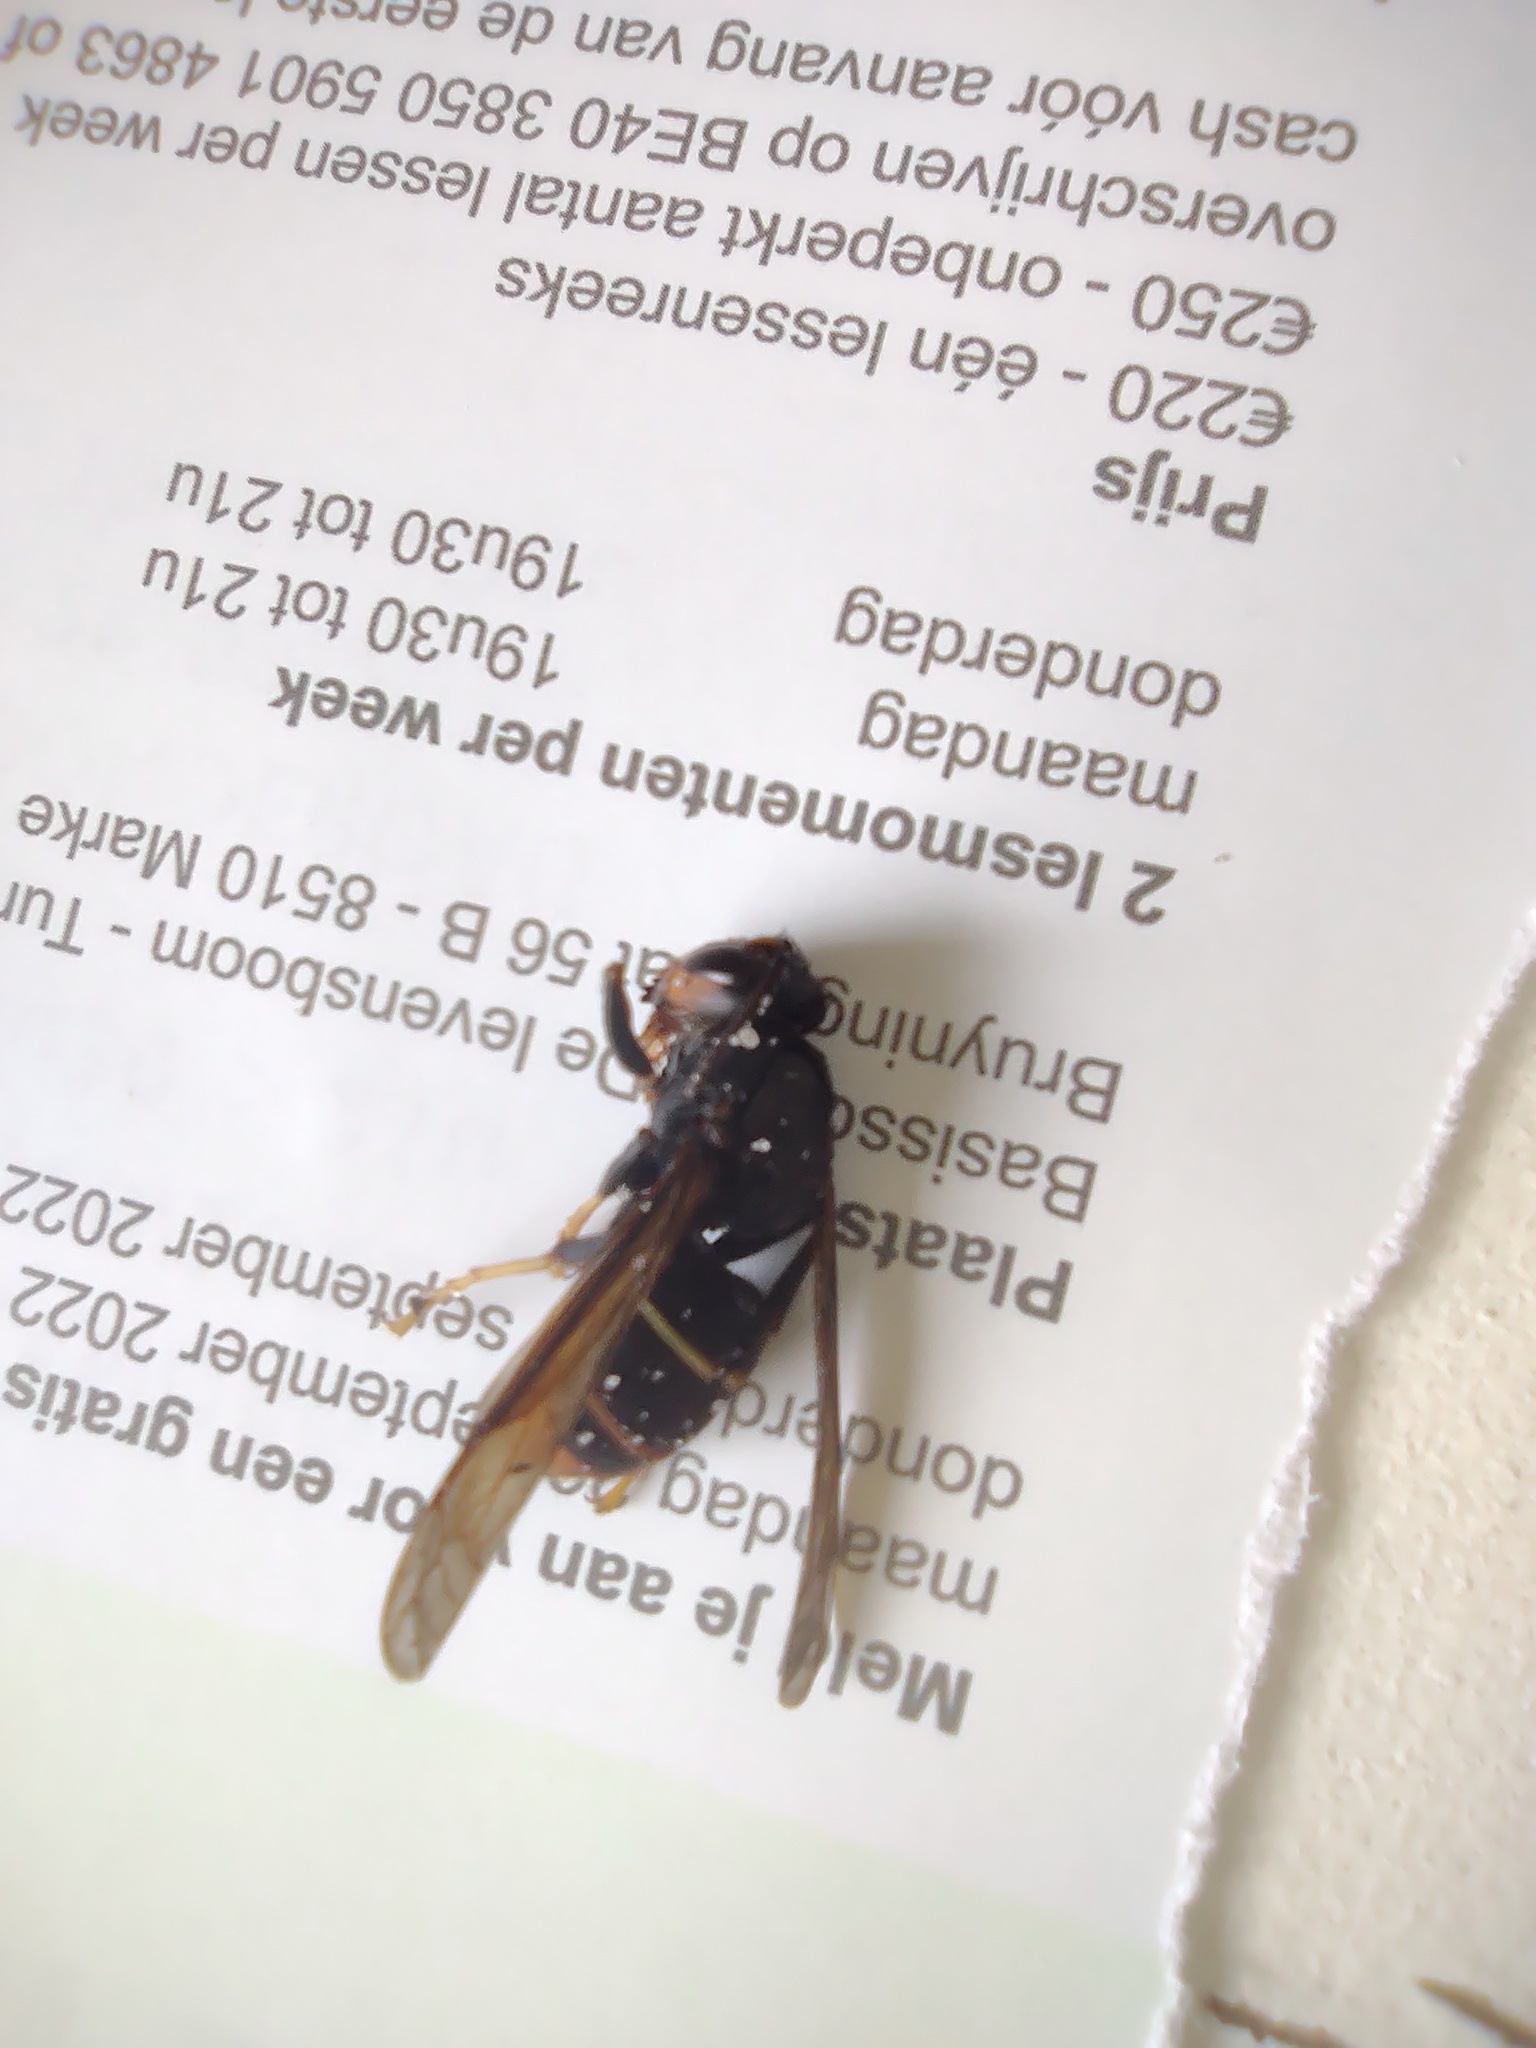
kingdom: Animalia
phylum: Arthropoda
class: Insecta
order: Hymenoptera
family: Vespidae
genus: Vespa
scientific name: Vespa velutina
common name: Asian hornet
